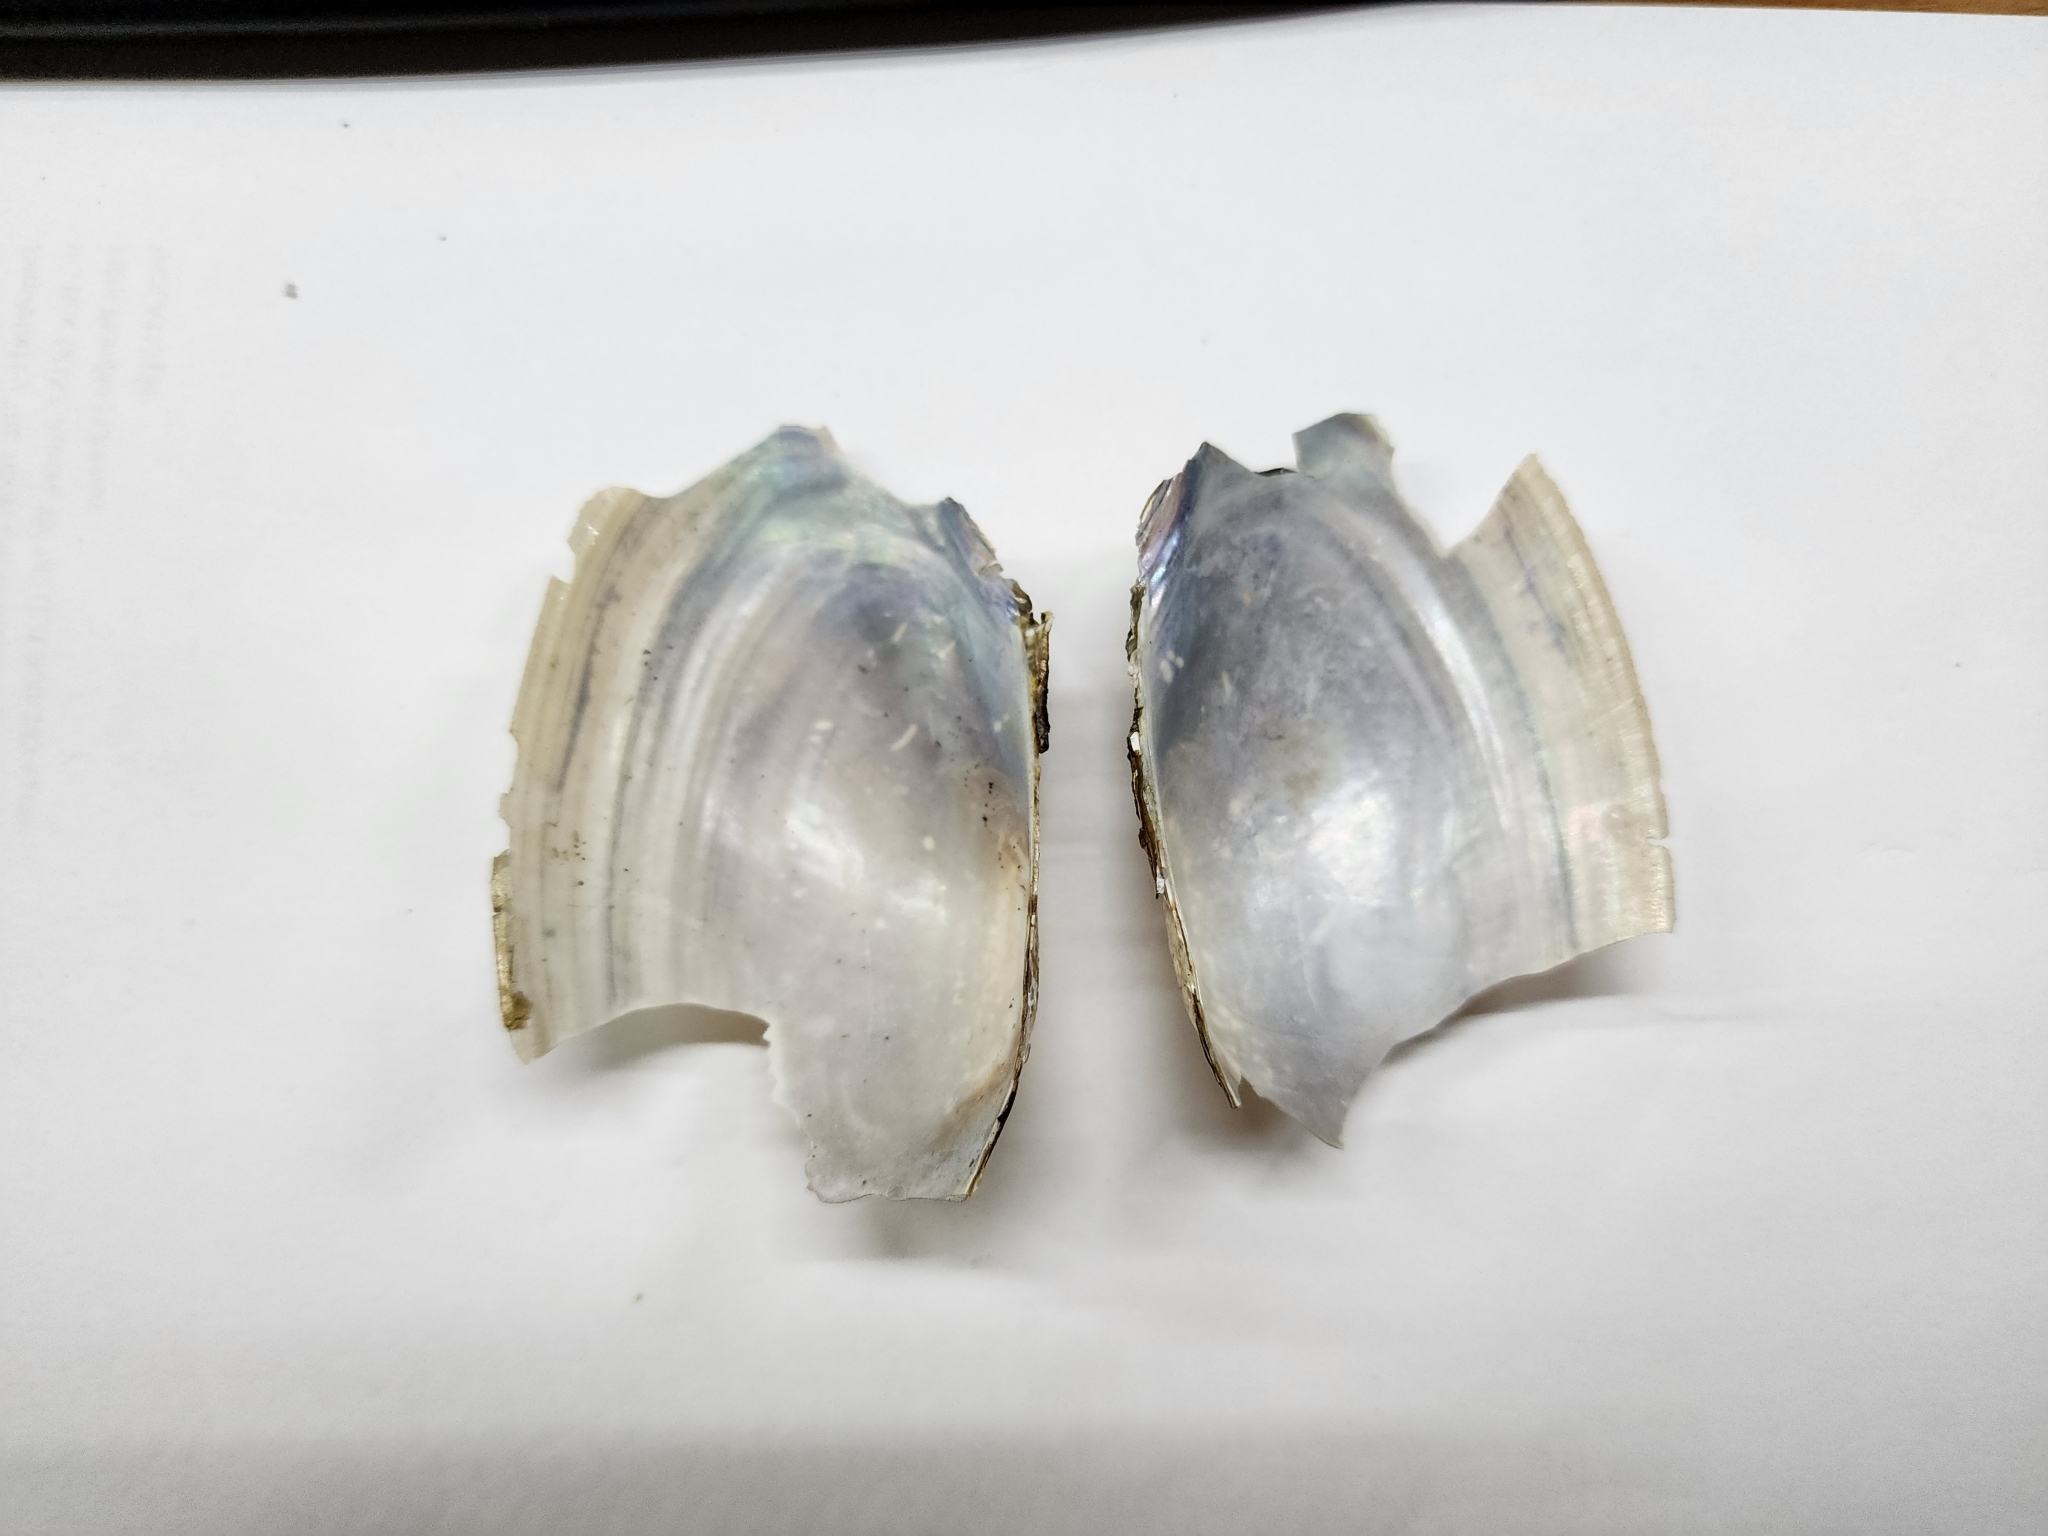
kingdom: Animalia
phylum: Mollusca
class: Bivalvia
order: Unionida
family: Unionidae
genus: Utterbackia
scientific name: Utterbackia imbecillis
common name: Paper pondshell
